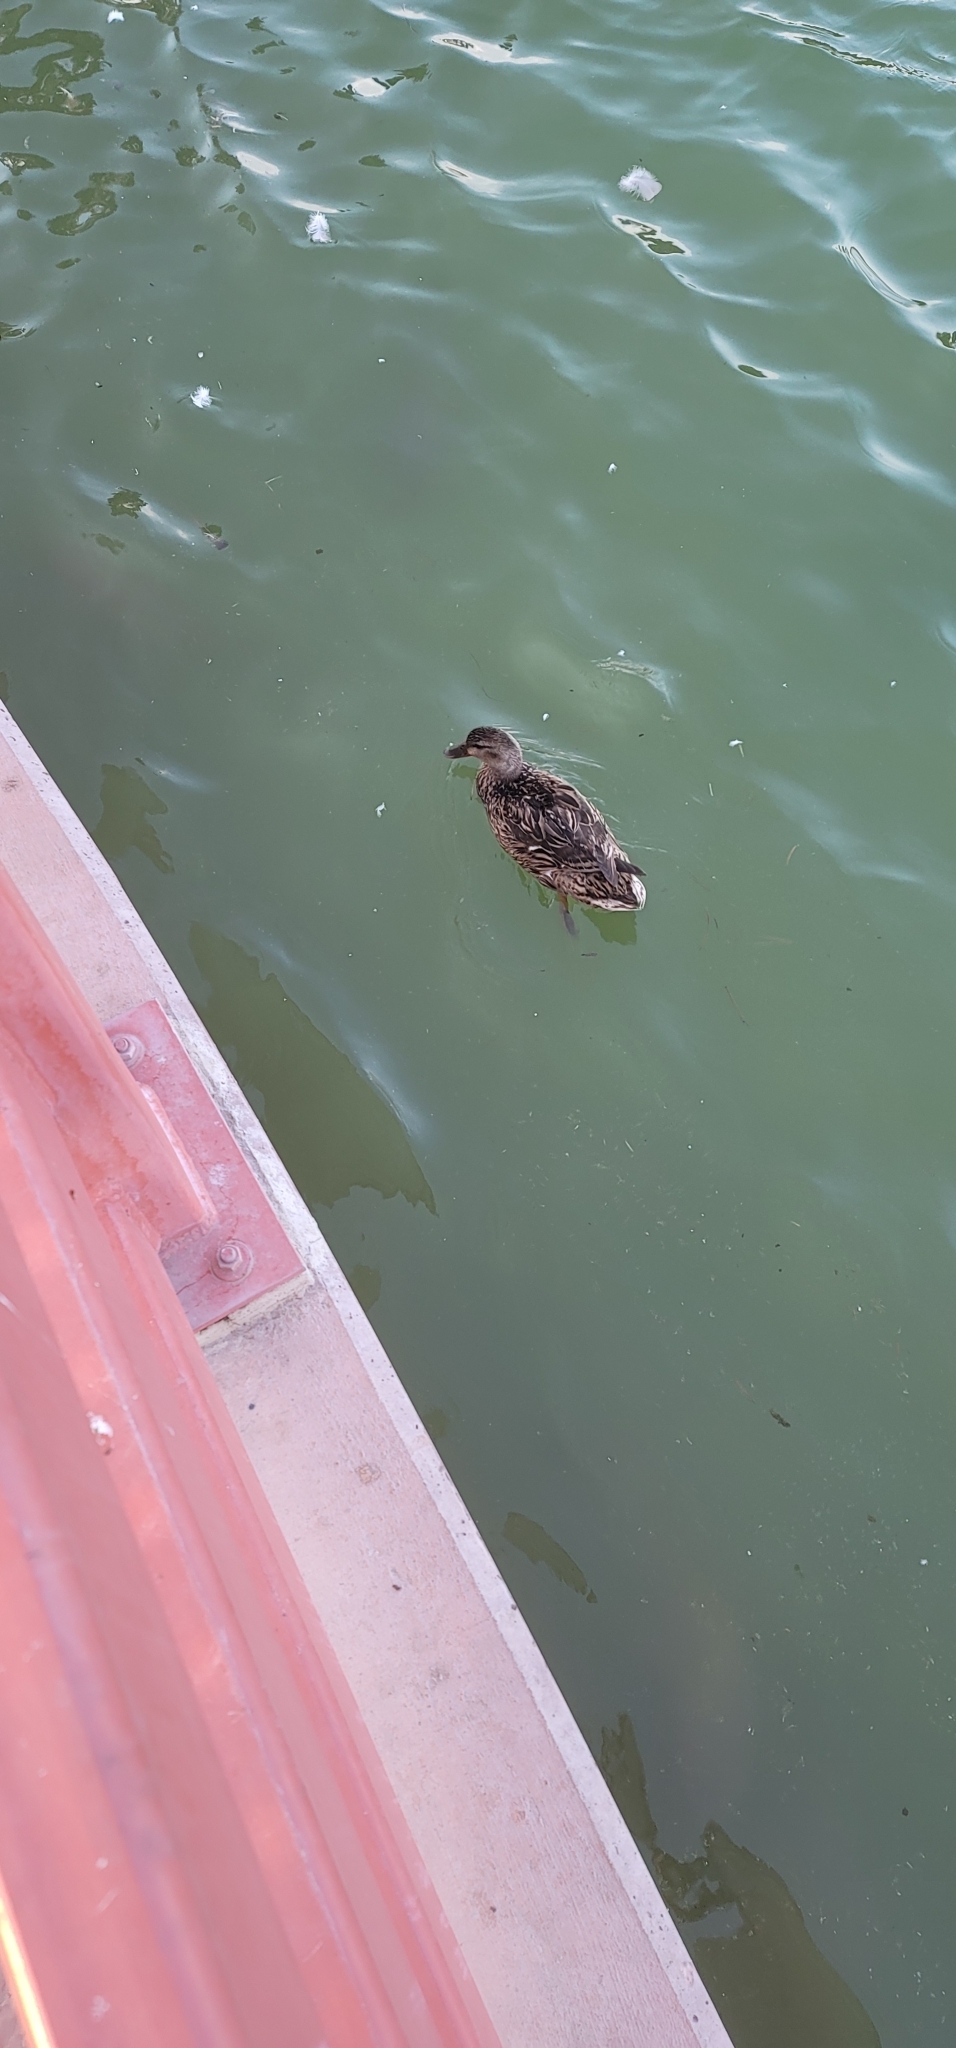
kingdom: Animalia
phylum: Chordata
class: Aves
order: Anseriformes
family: Anatidae
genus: Anas
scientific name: Anas platyrhynchos
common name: Mallard
